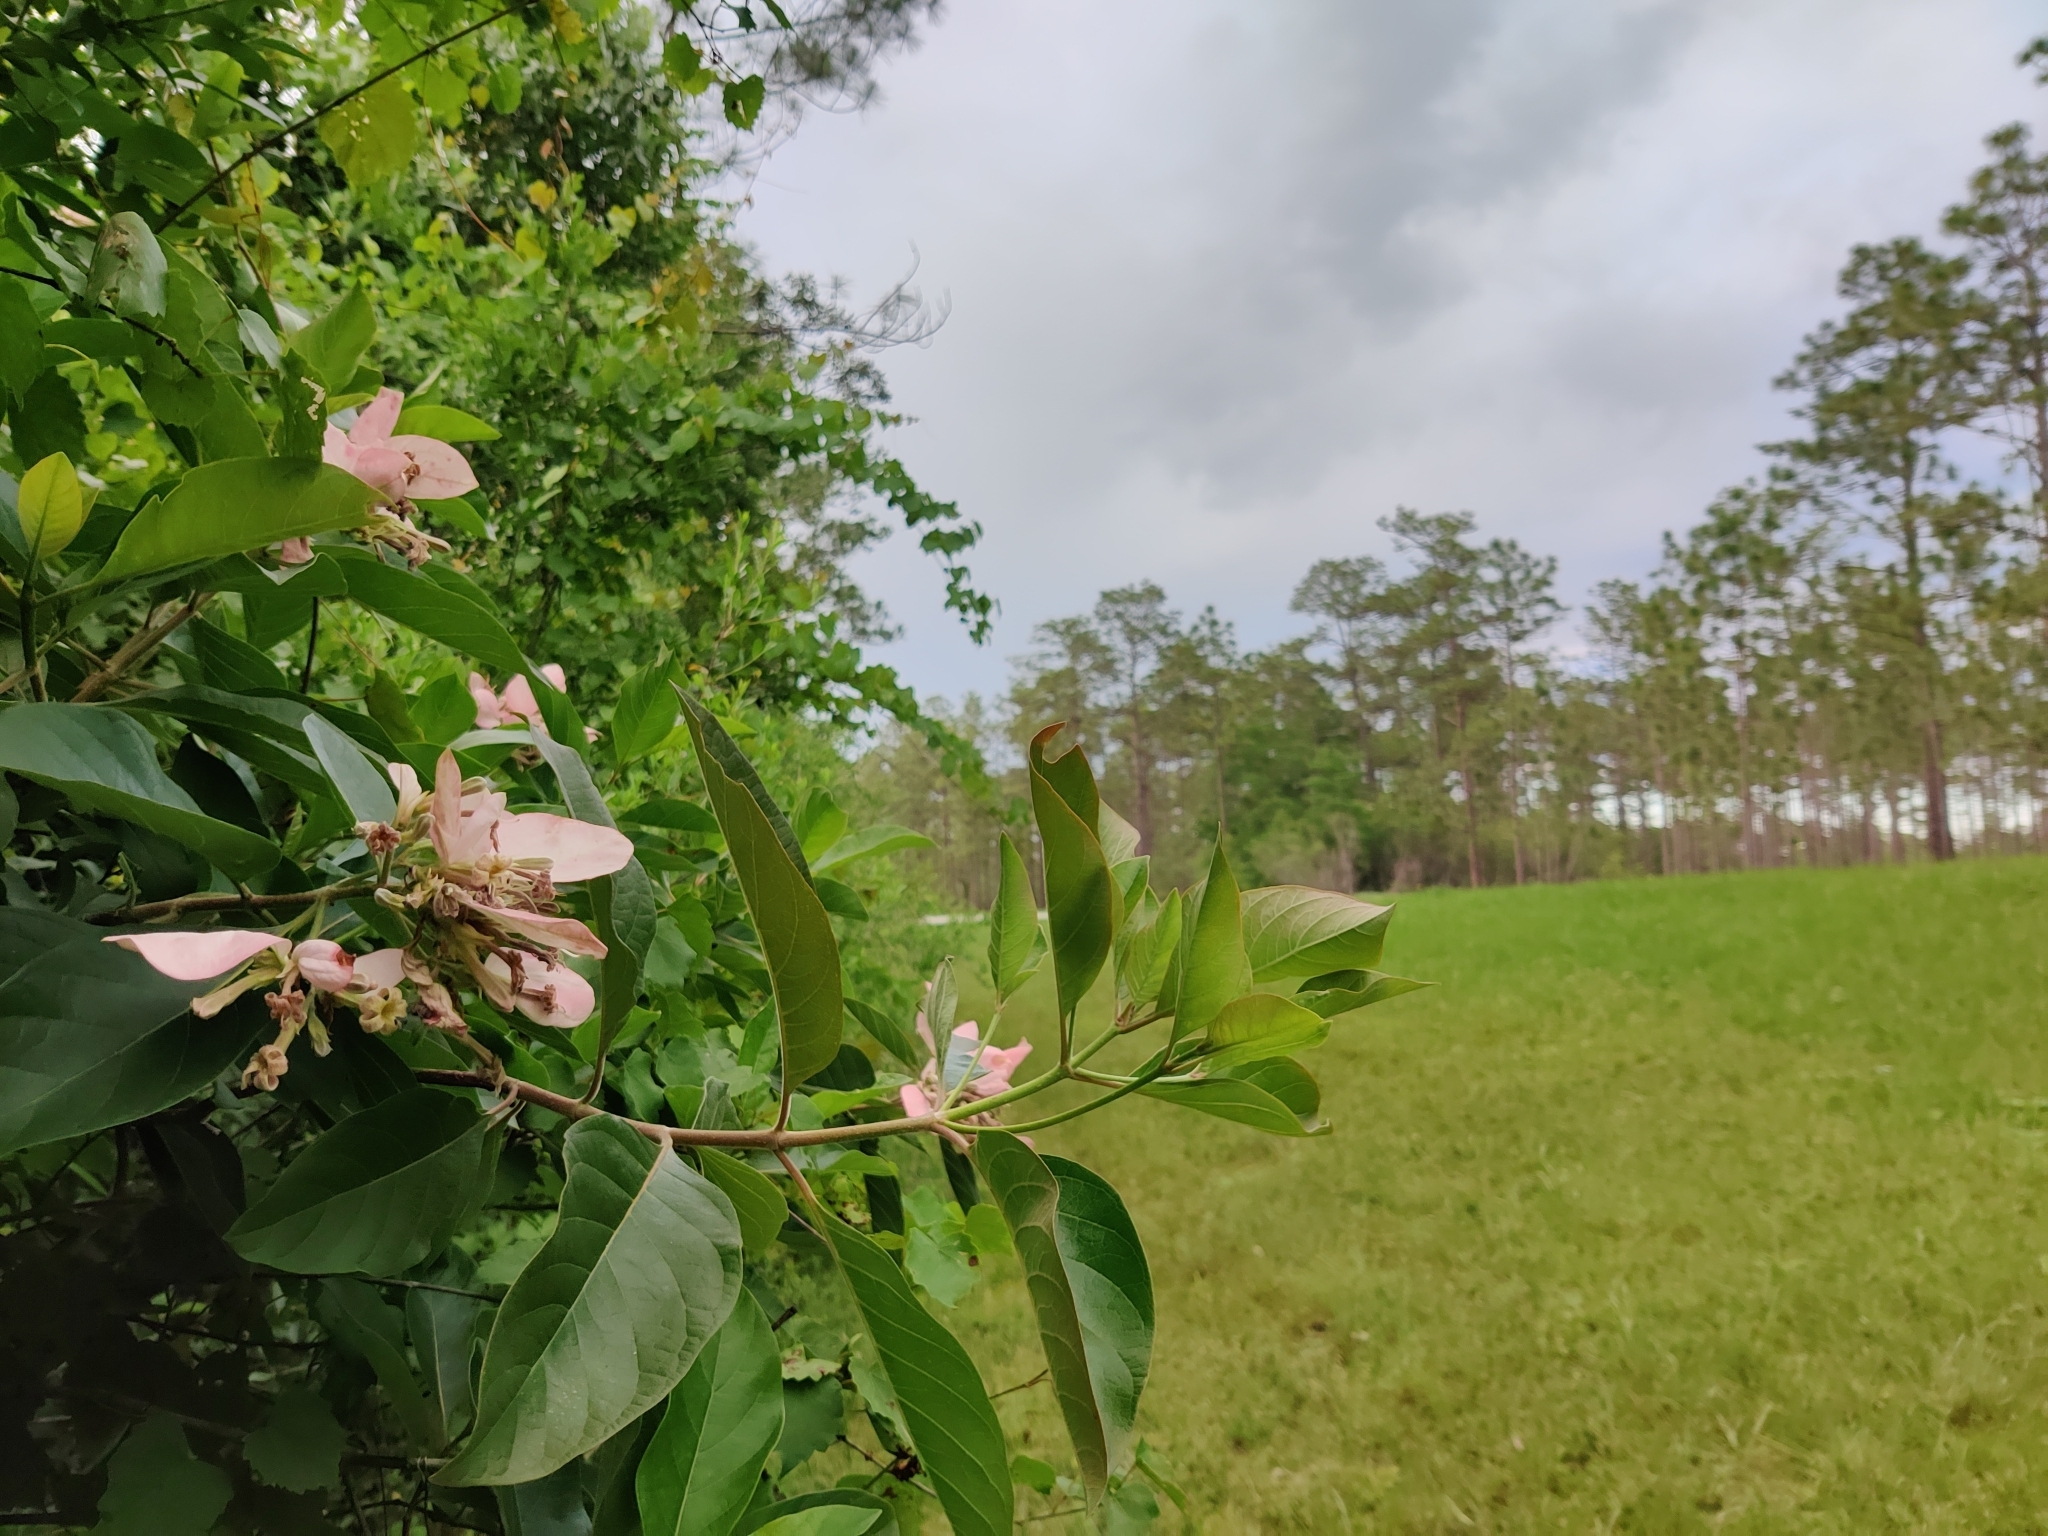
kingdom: Plantae
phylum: Tracheophyta
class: Magnoliopsida
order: Gentianales
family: Rubiaceae
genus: Pinckneya
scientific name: Pinckneya pubens
